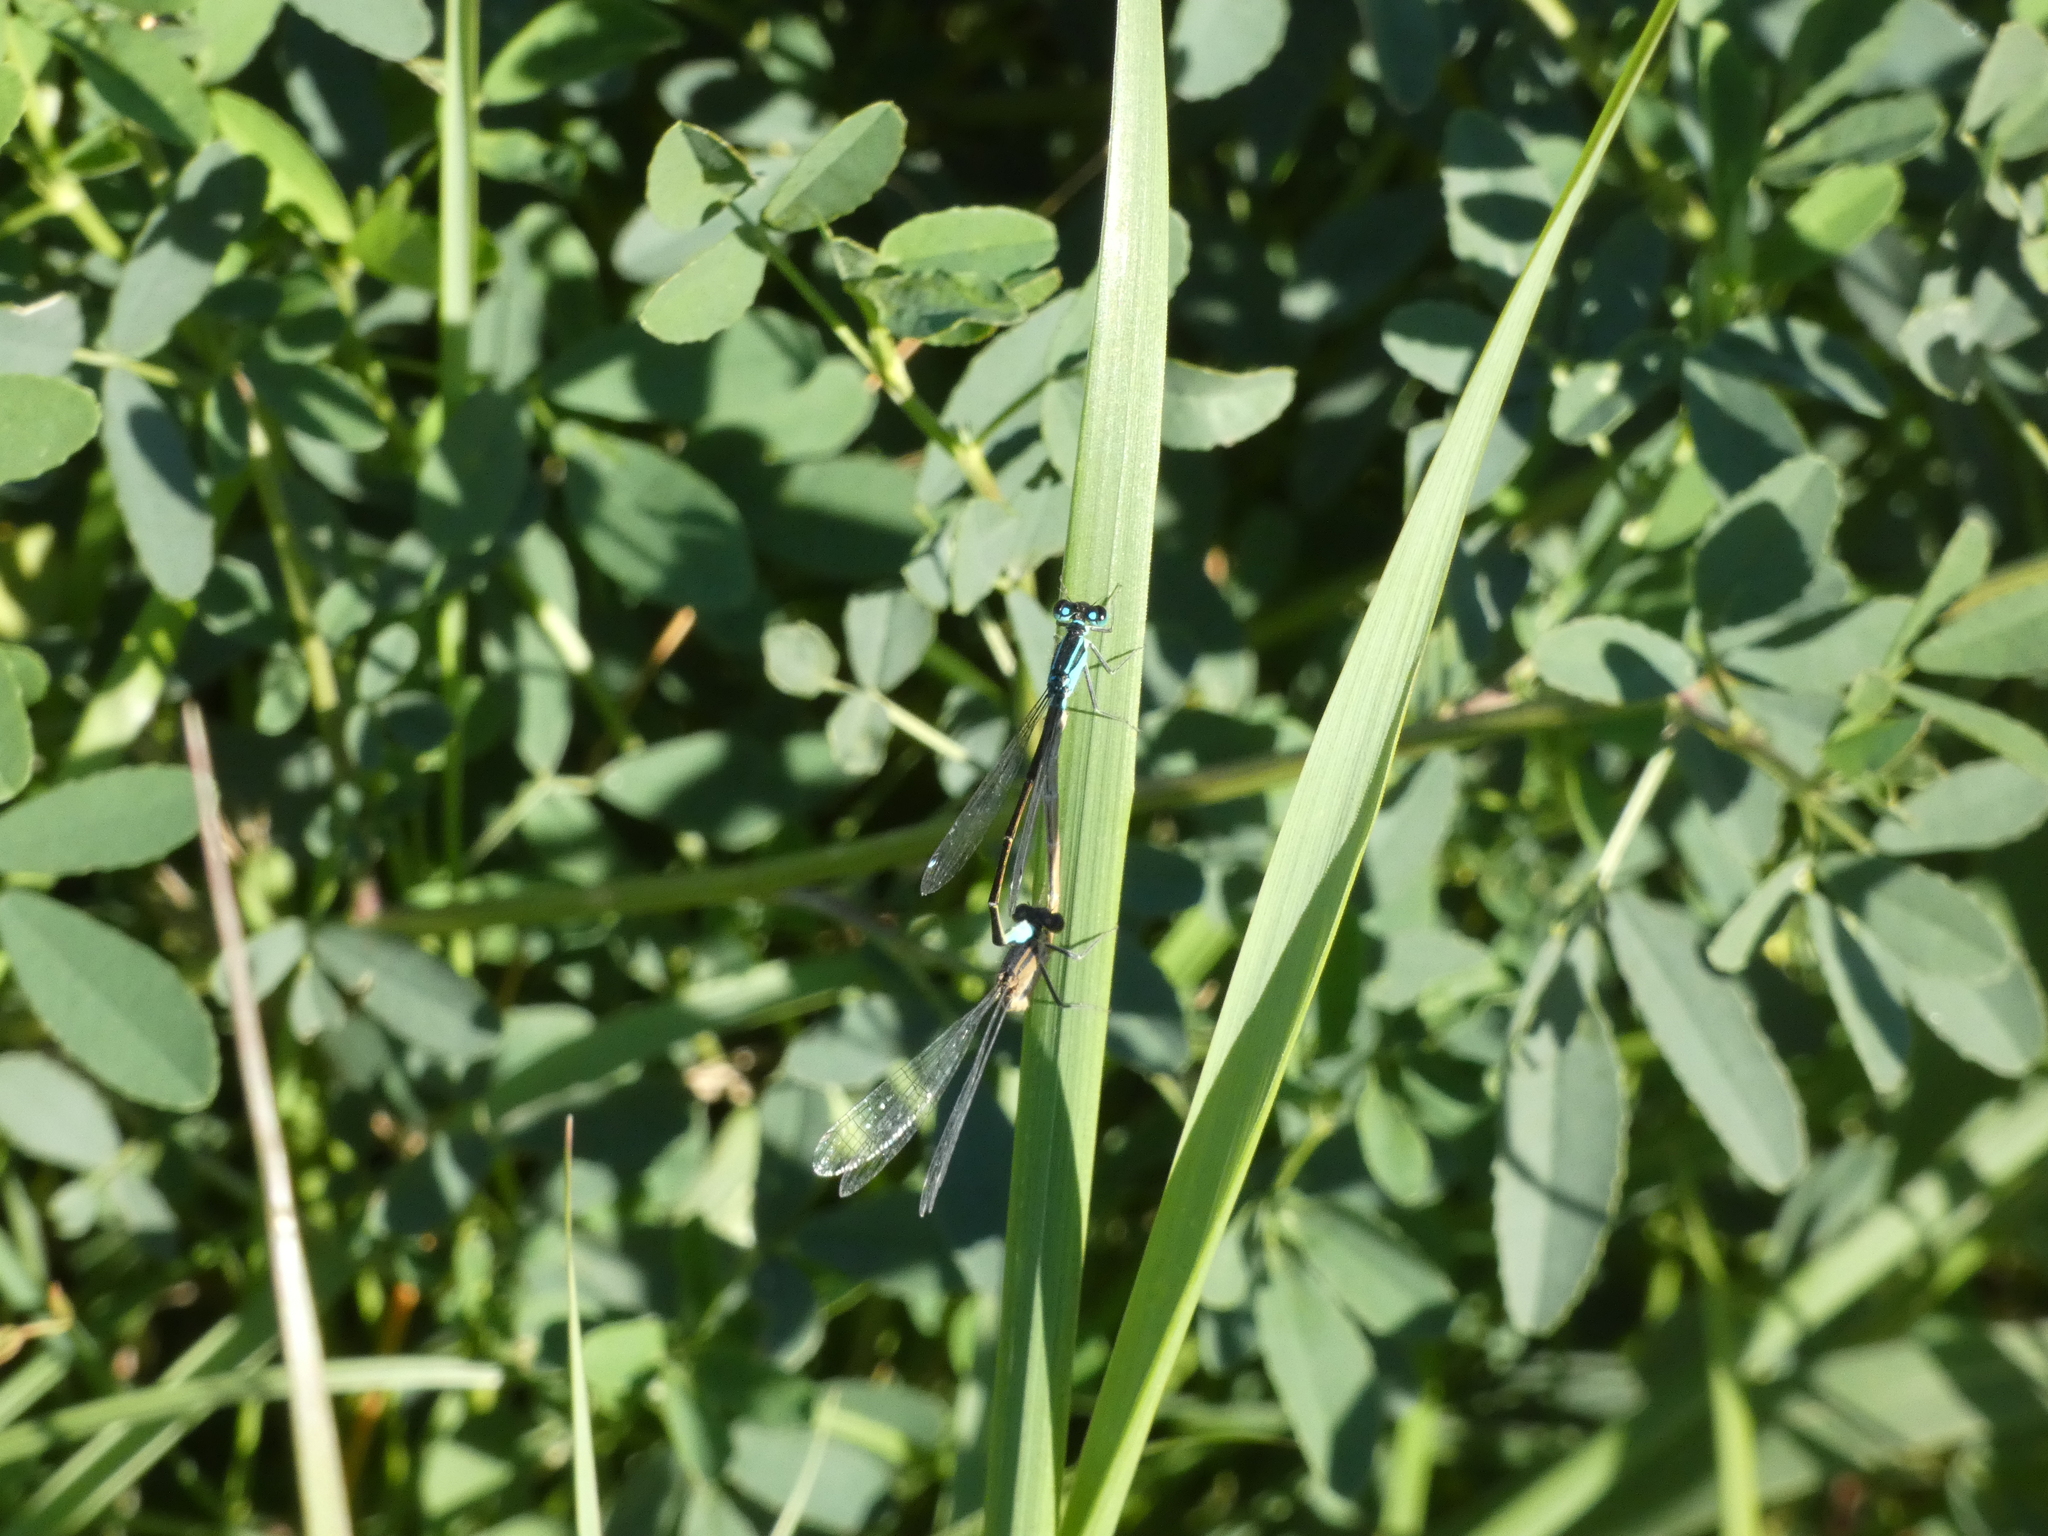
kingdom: Animalia
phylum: Arthropoda
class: Insecta
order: Odonata
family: Coenagrionidae
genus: Ischnura
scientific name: Ischnura elegans
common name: Blue-tailed damselfly
